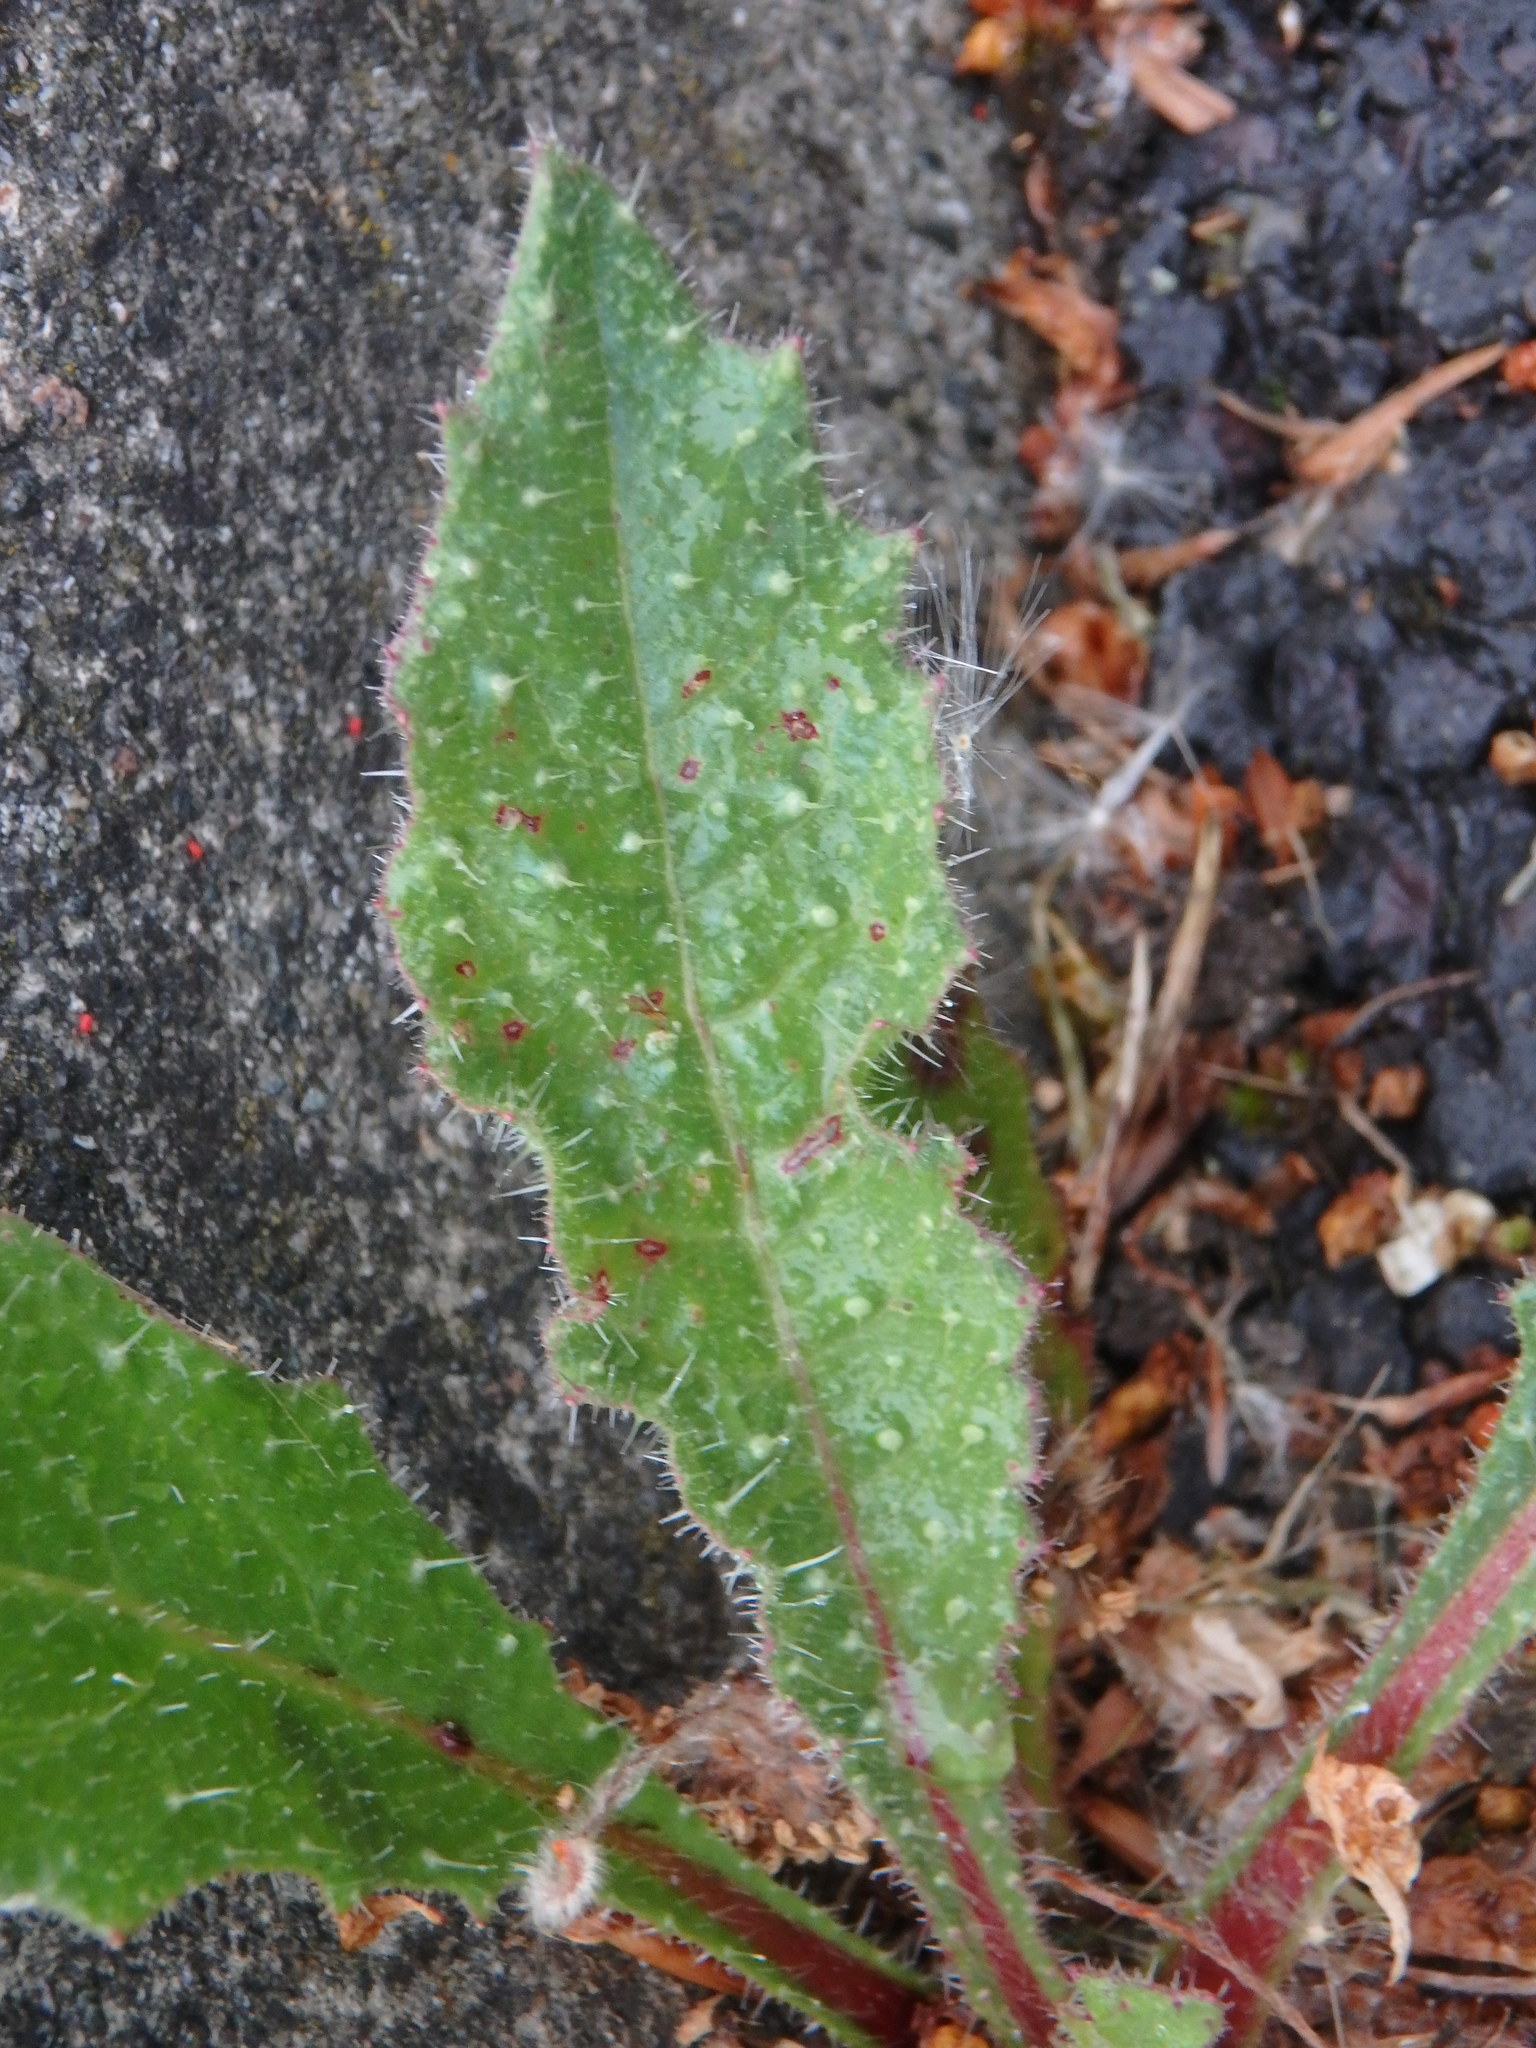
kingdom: Plantae
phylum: Tracheophyta
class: Magnoliopsida
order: Asterales
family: Asteraceae
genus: Helminthotheca
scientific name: Helminthotheca echioides
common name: Ox-tongue
